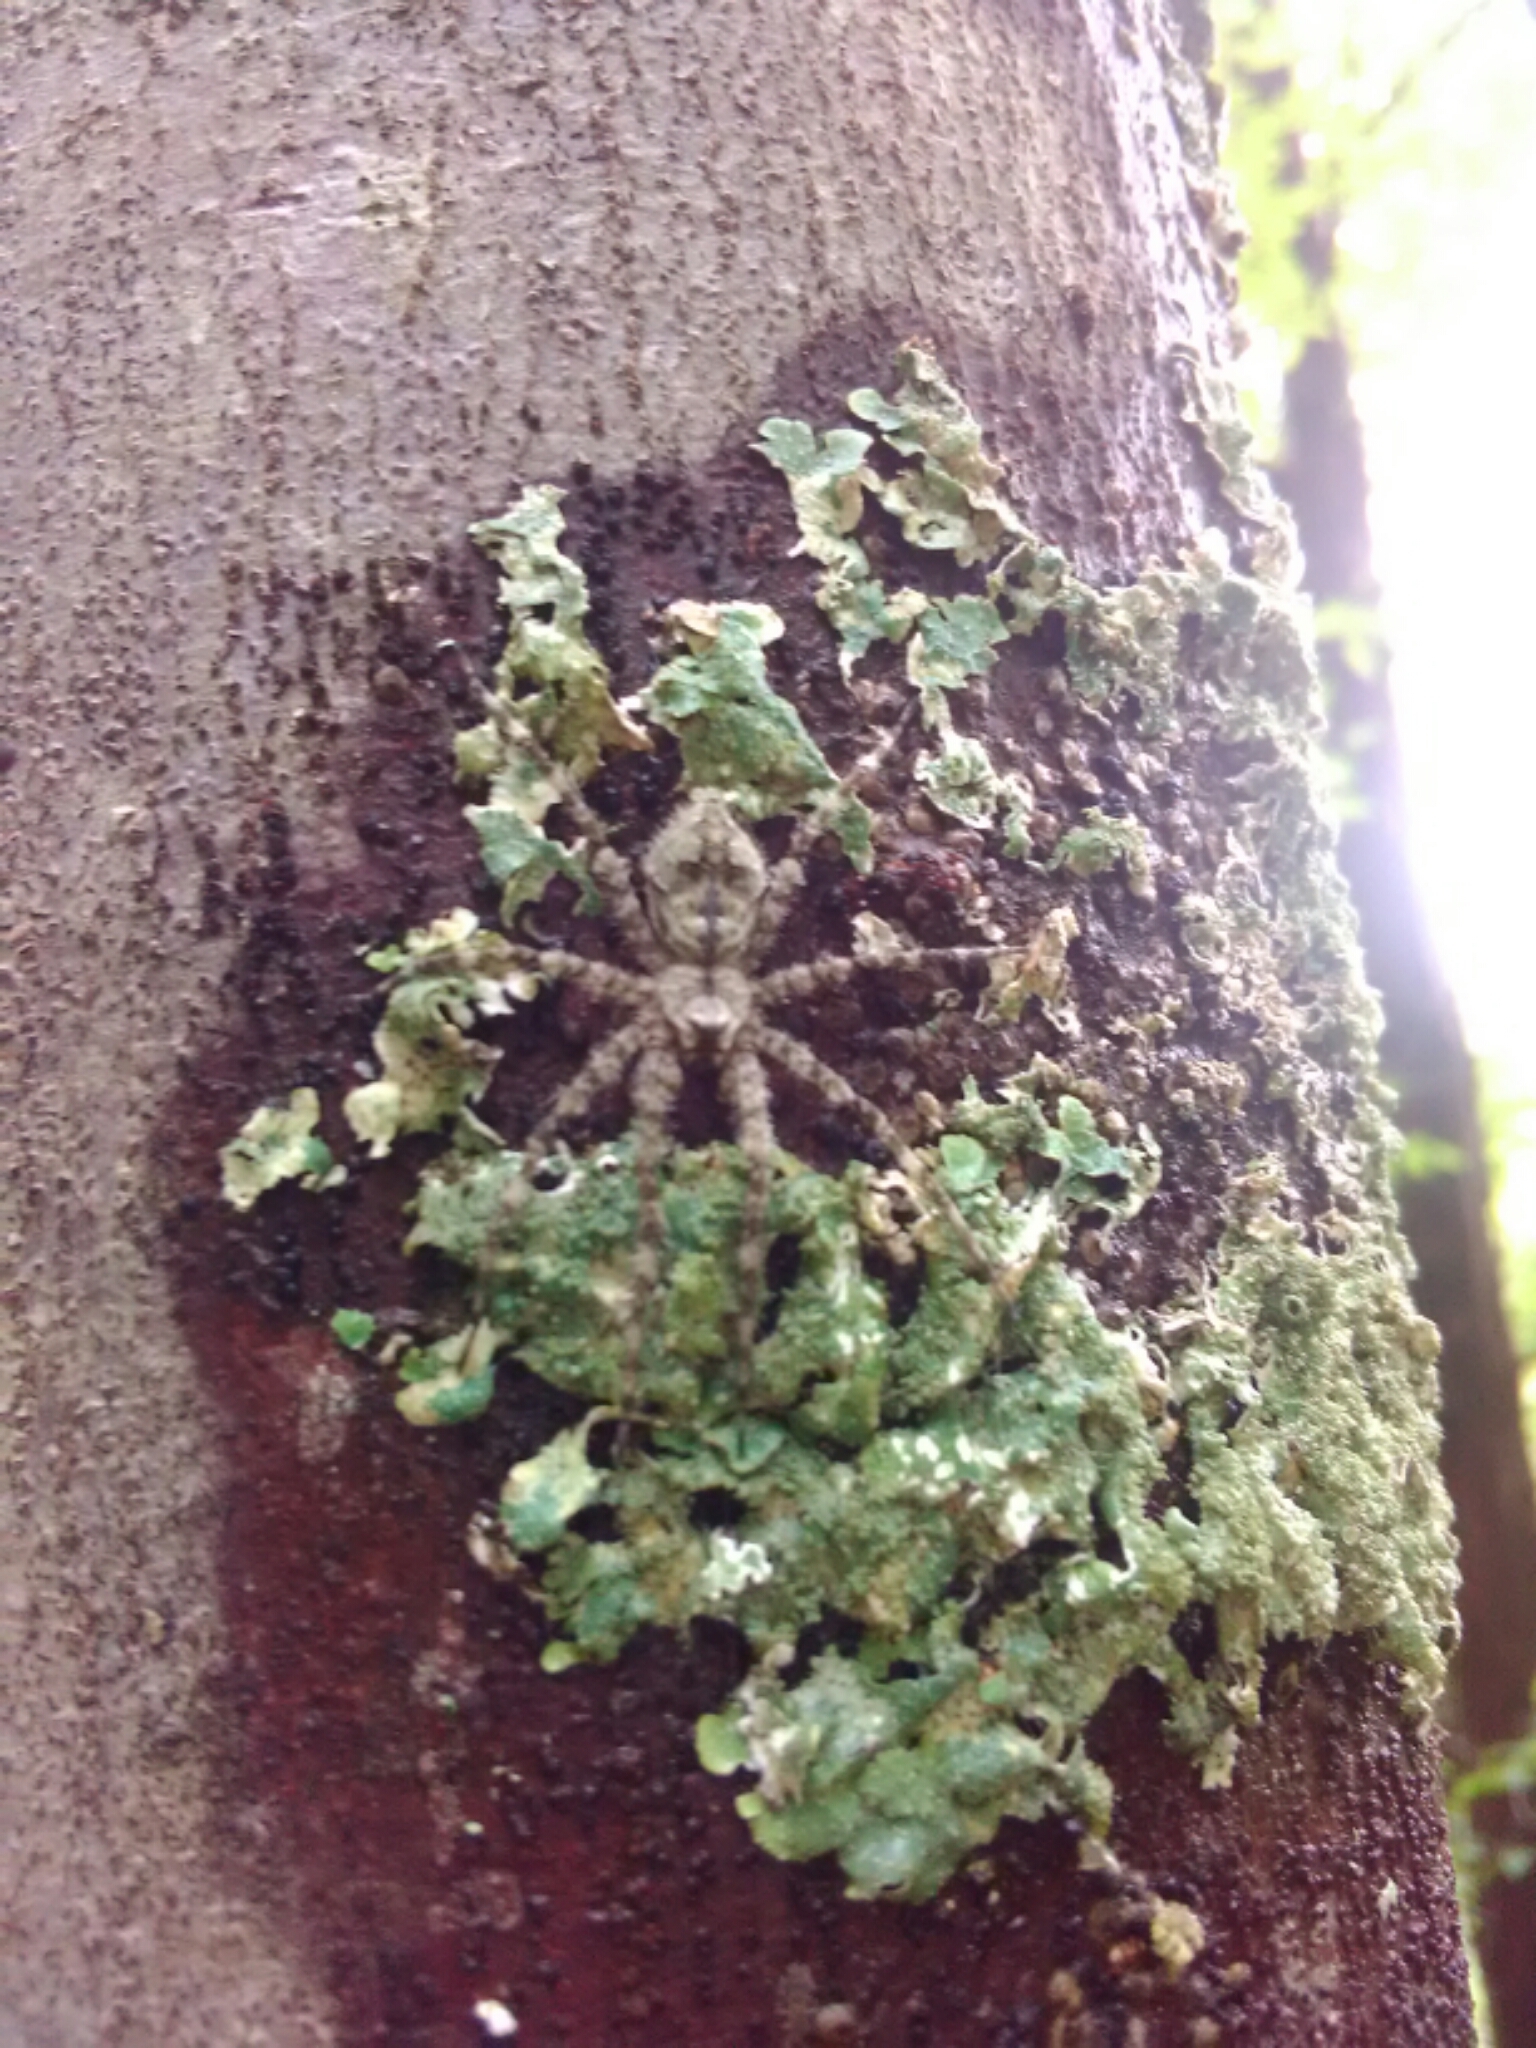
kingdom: Animalia
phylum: Arthropoda
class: Arachnida
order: Araneae
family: Pisauridae
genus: Dolomedes
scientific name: Dolomedes albineus
